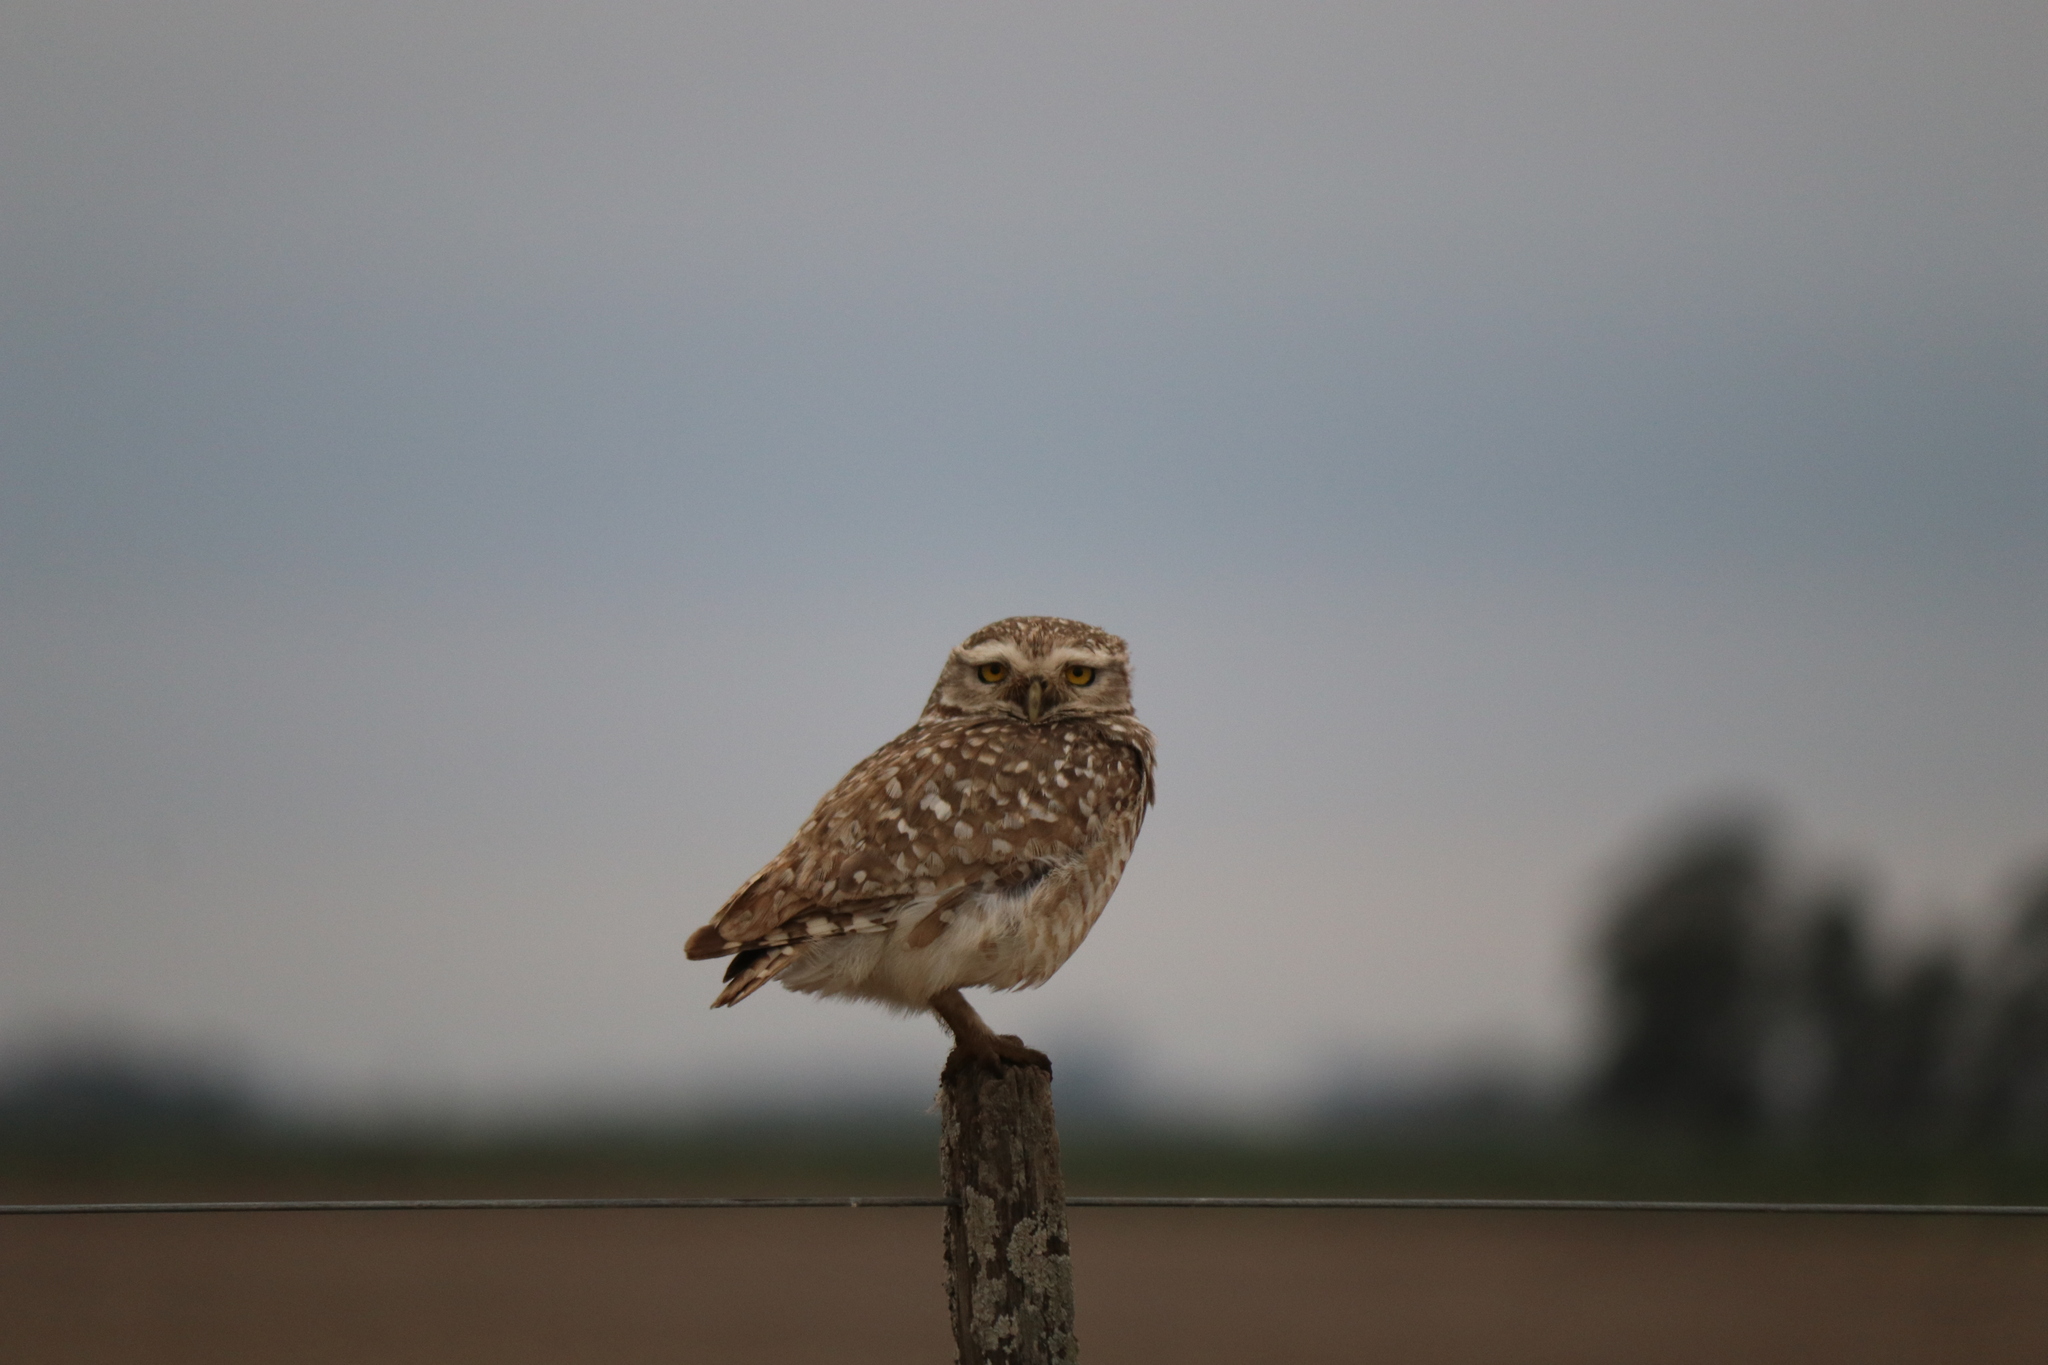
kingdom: Animalia
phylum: Chordata
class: Aves
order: Strigiformes
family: Strigidae
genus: Athene
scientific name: Athene cunicularia
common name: Burrowing owl
